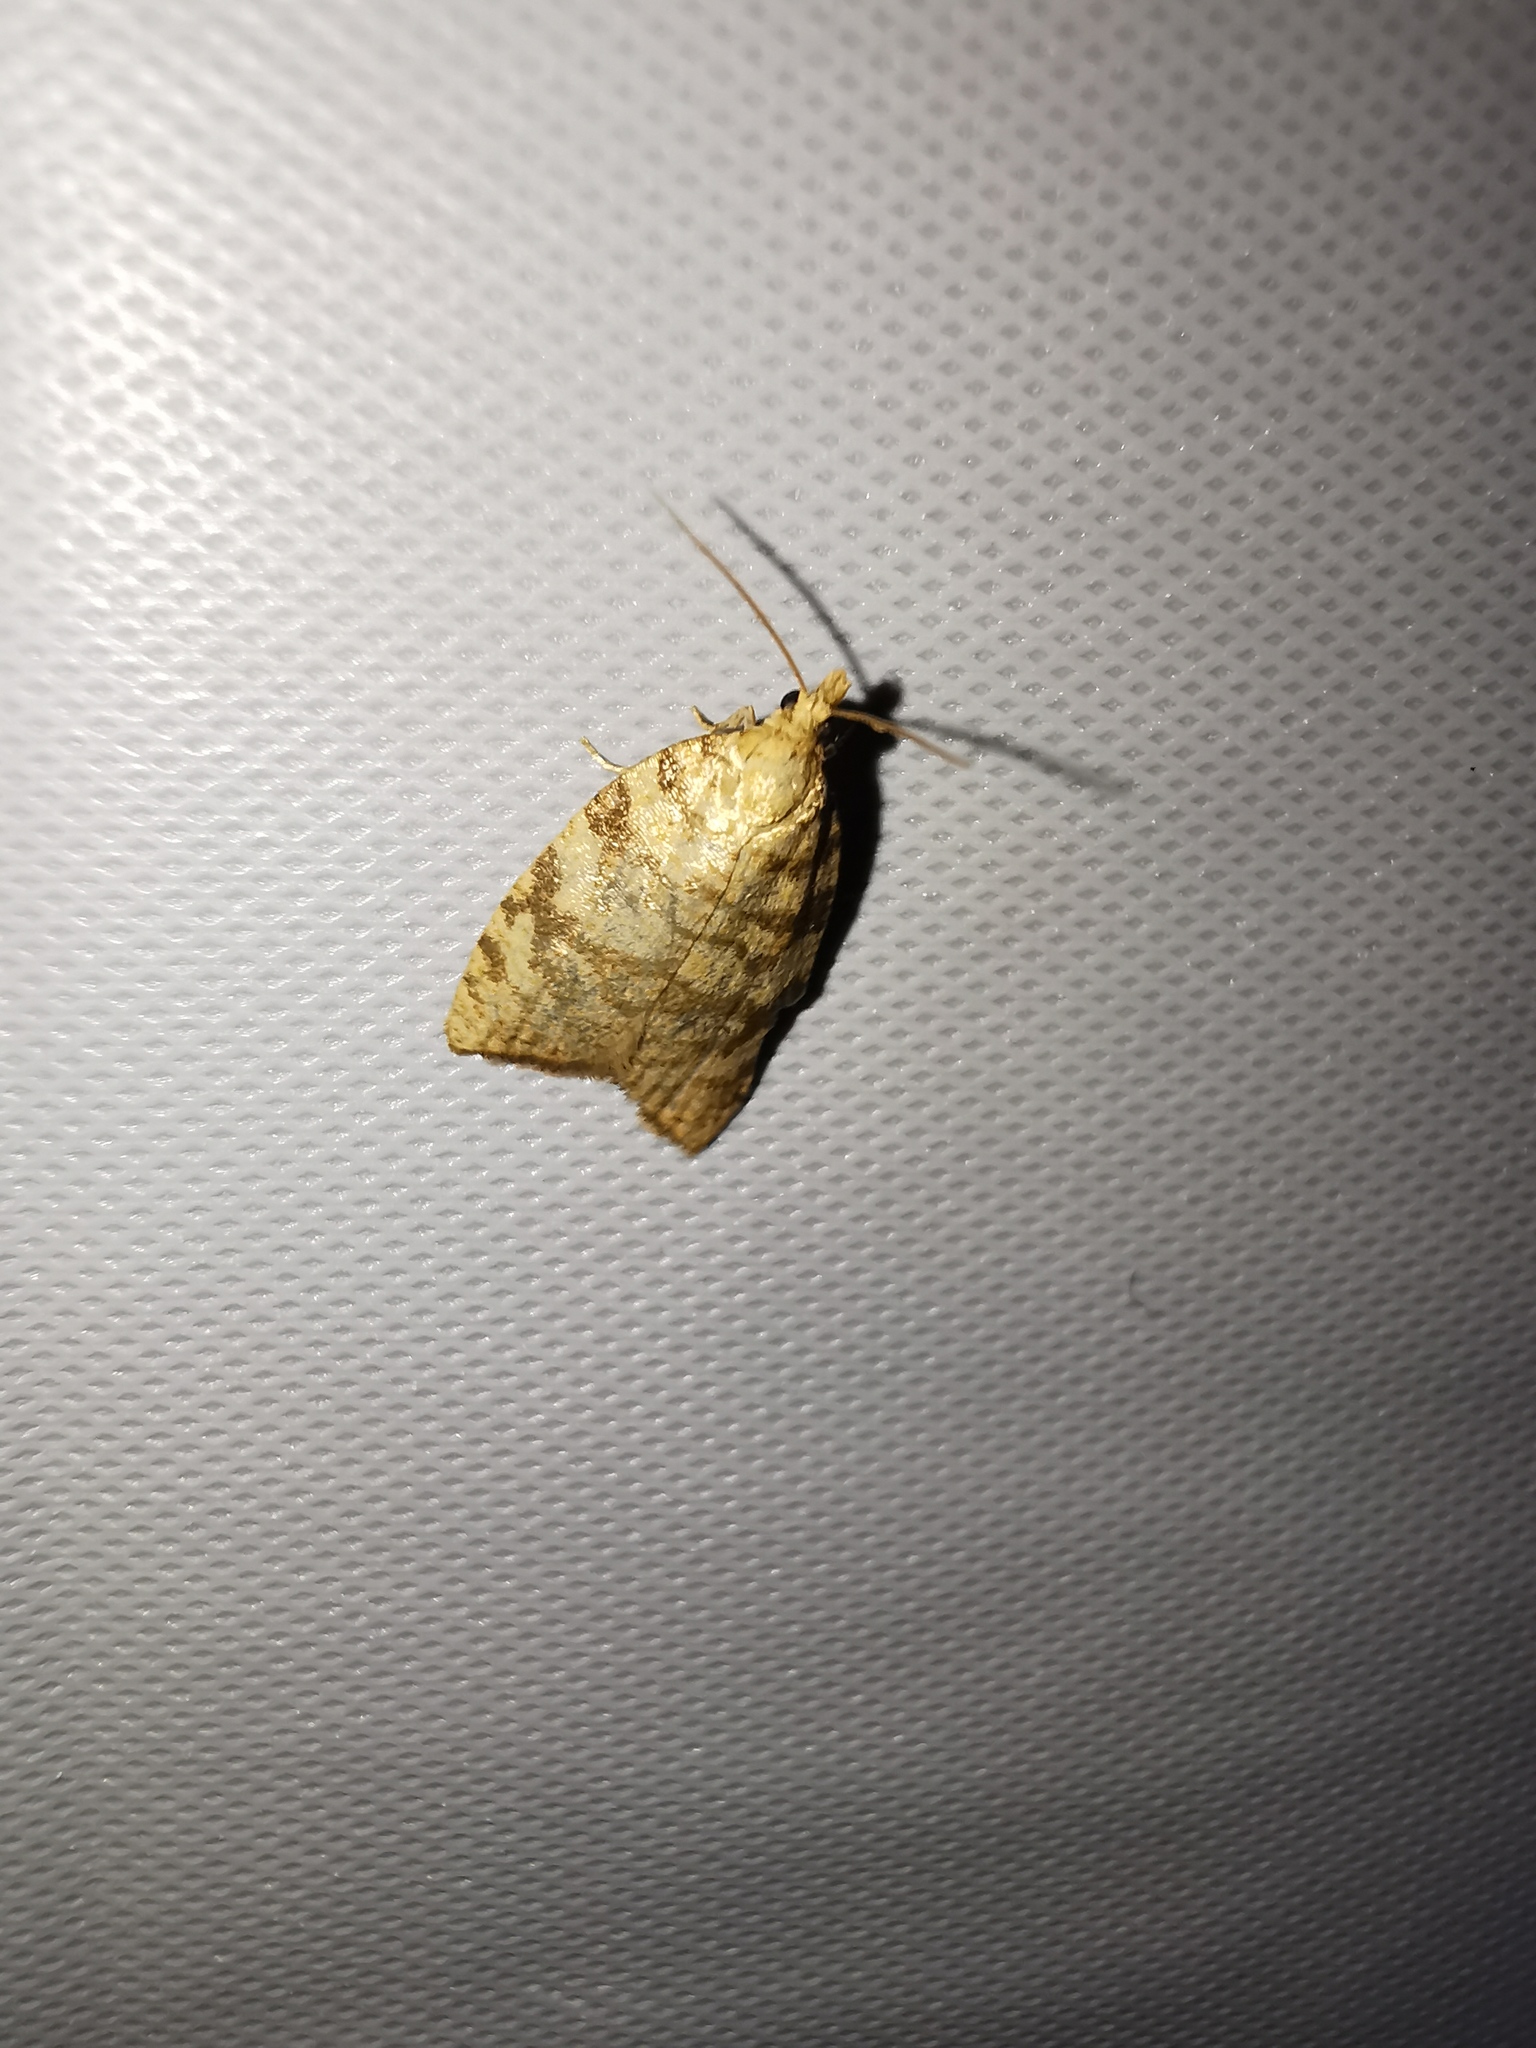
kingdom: Animalia
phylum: Arthropoda
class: Insecta
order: Lepidoptera
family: Tortricidae
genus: Aleimma
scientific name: Aleimma loeflingiana
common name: Yellow oak button
